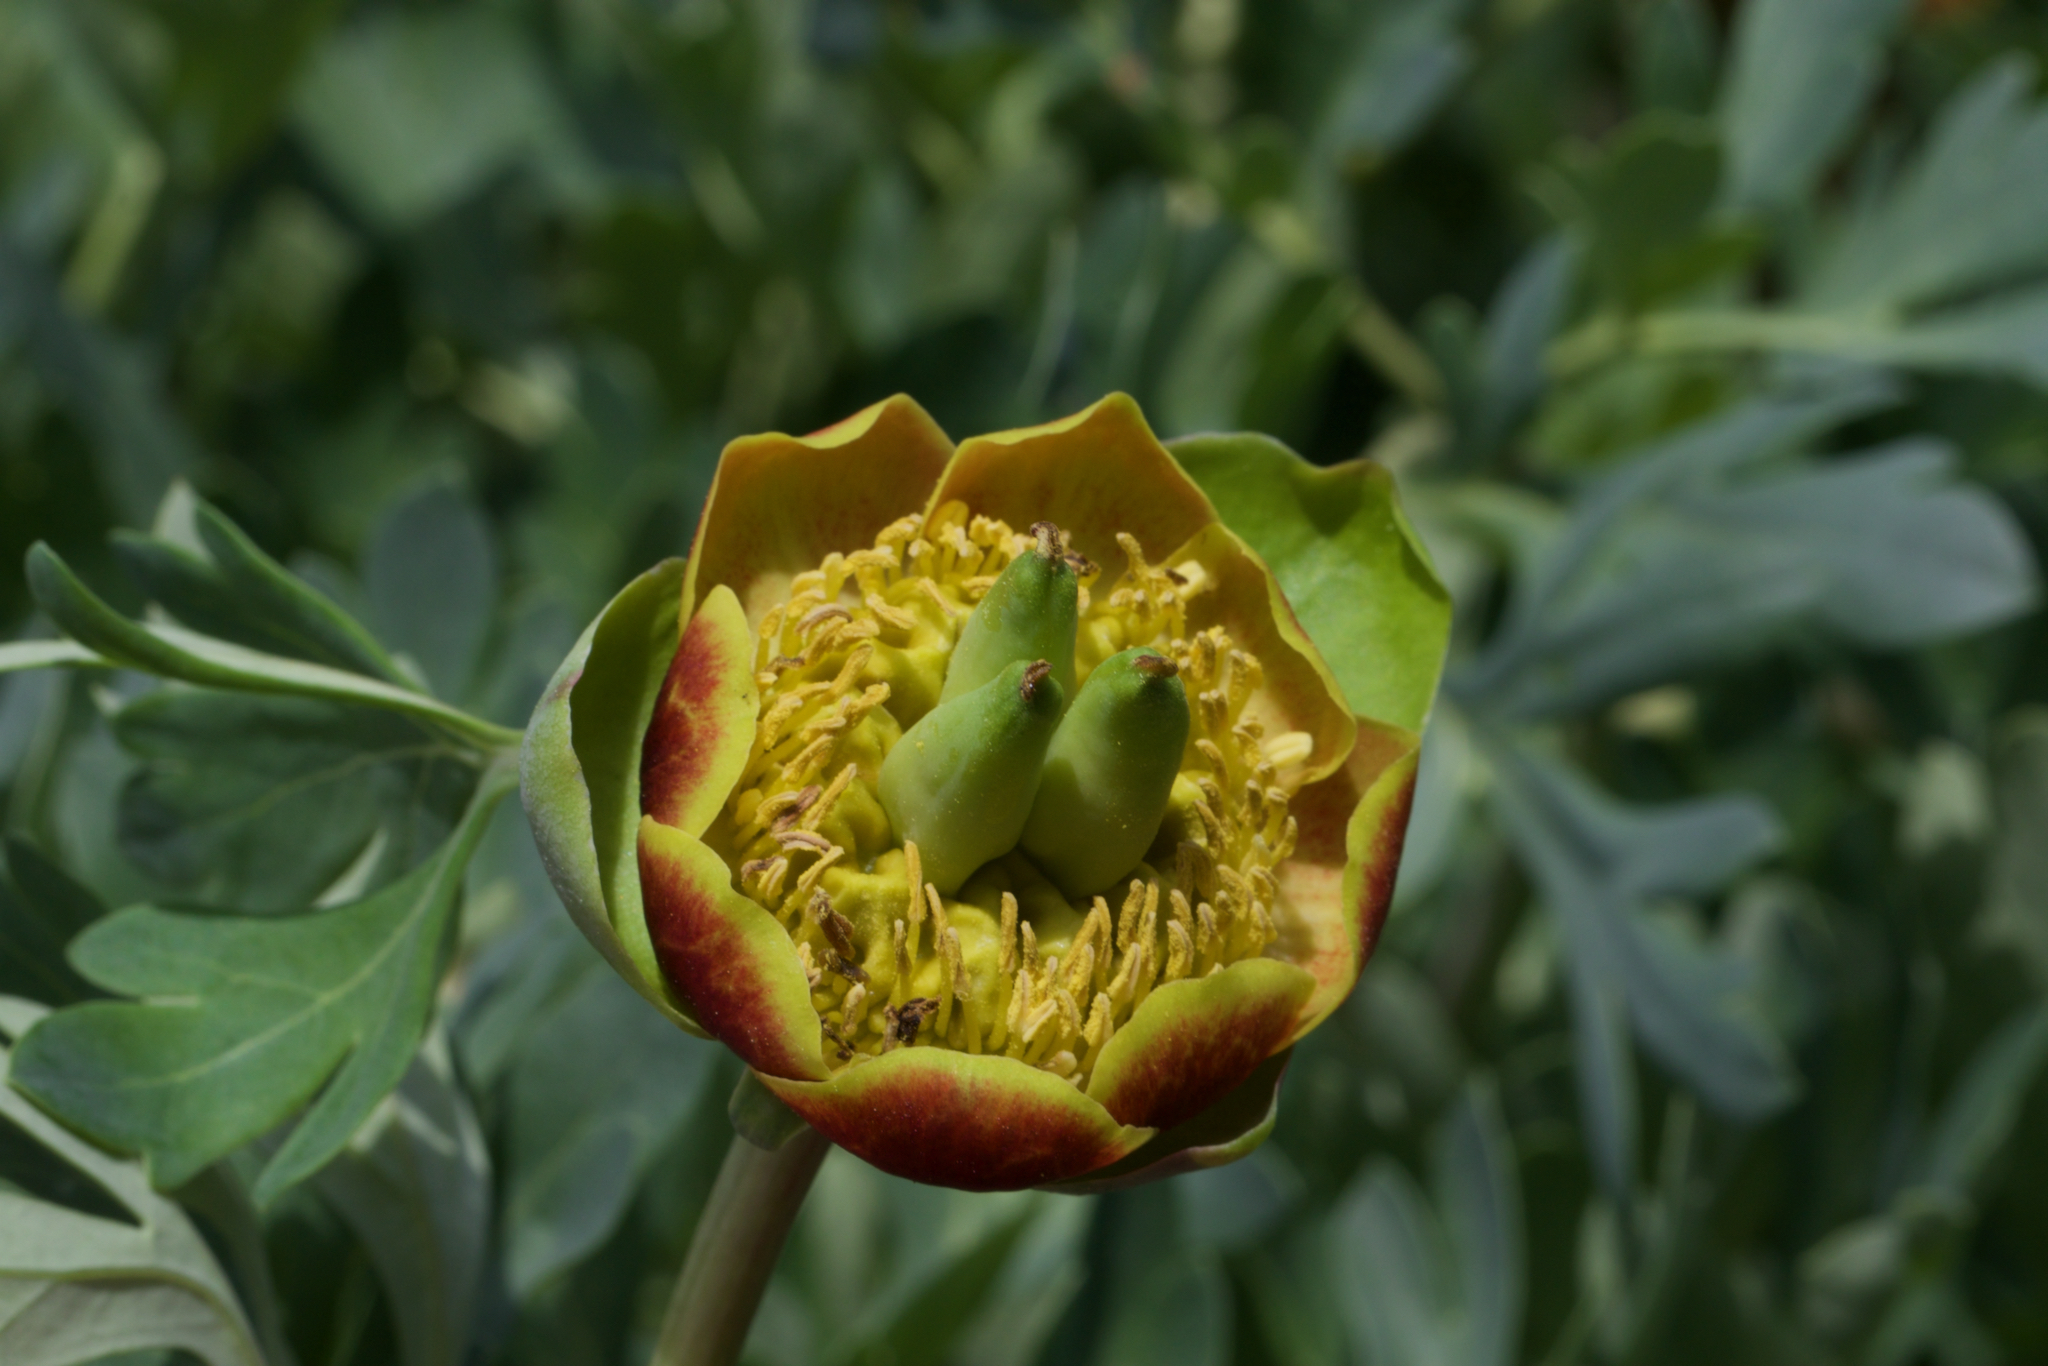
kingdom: Plantae
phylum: Tracheophyta
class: Magnoliopsida
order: Saxifragales
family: Paeoniaceae
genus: Paeonia
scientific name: Paeonia brownii
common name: Brown's peony
